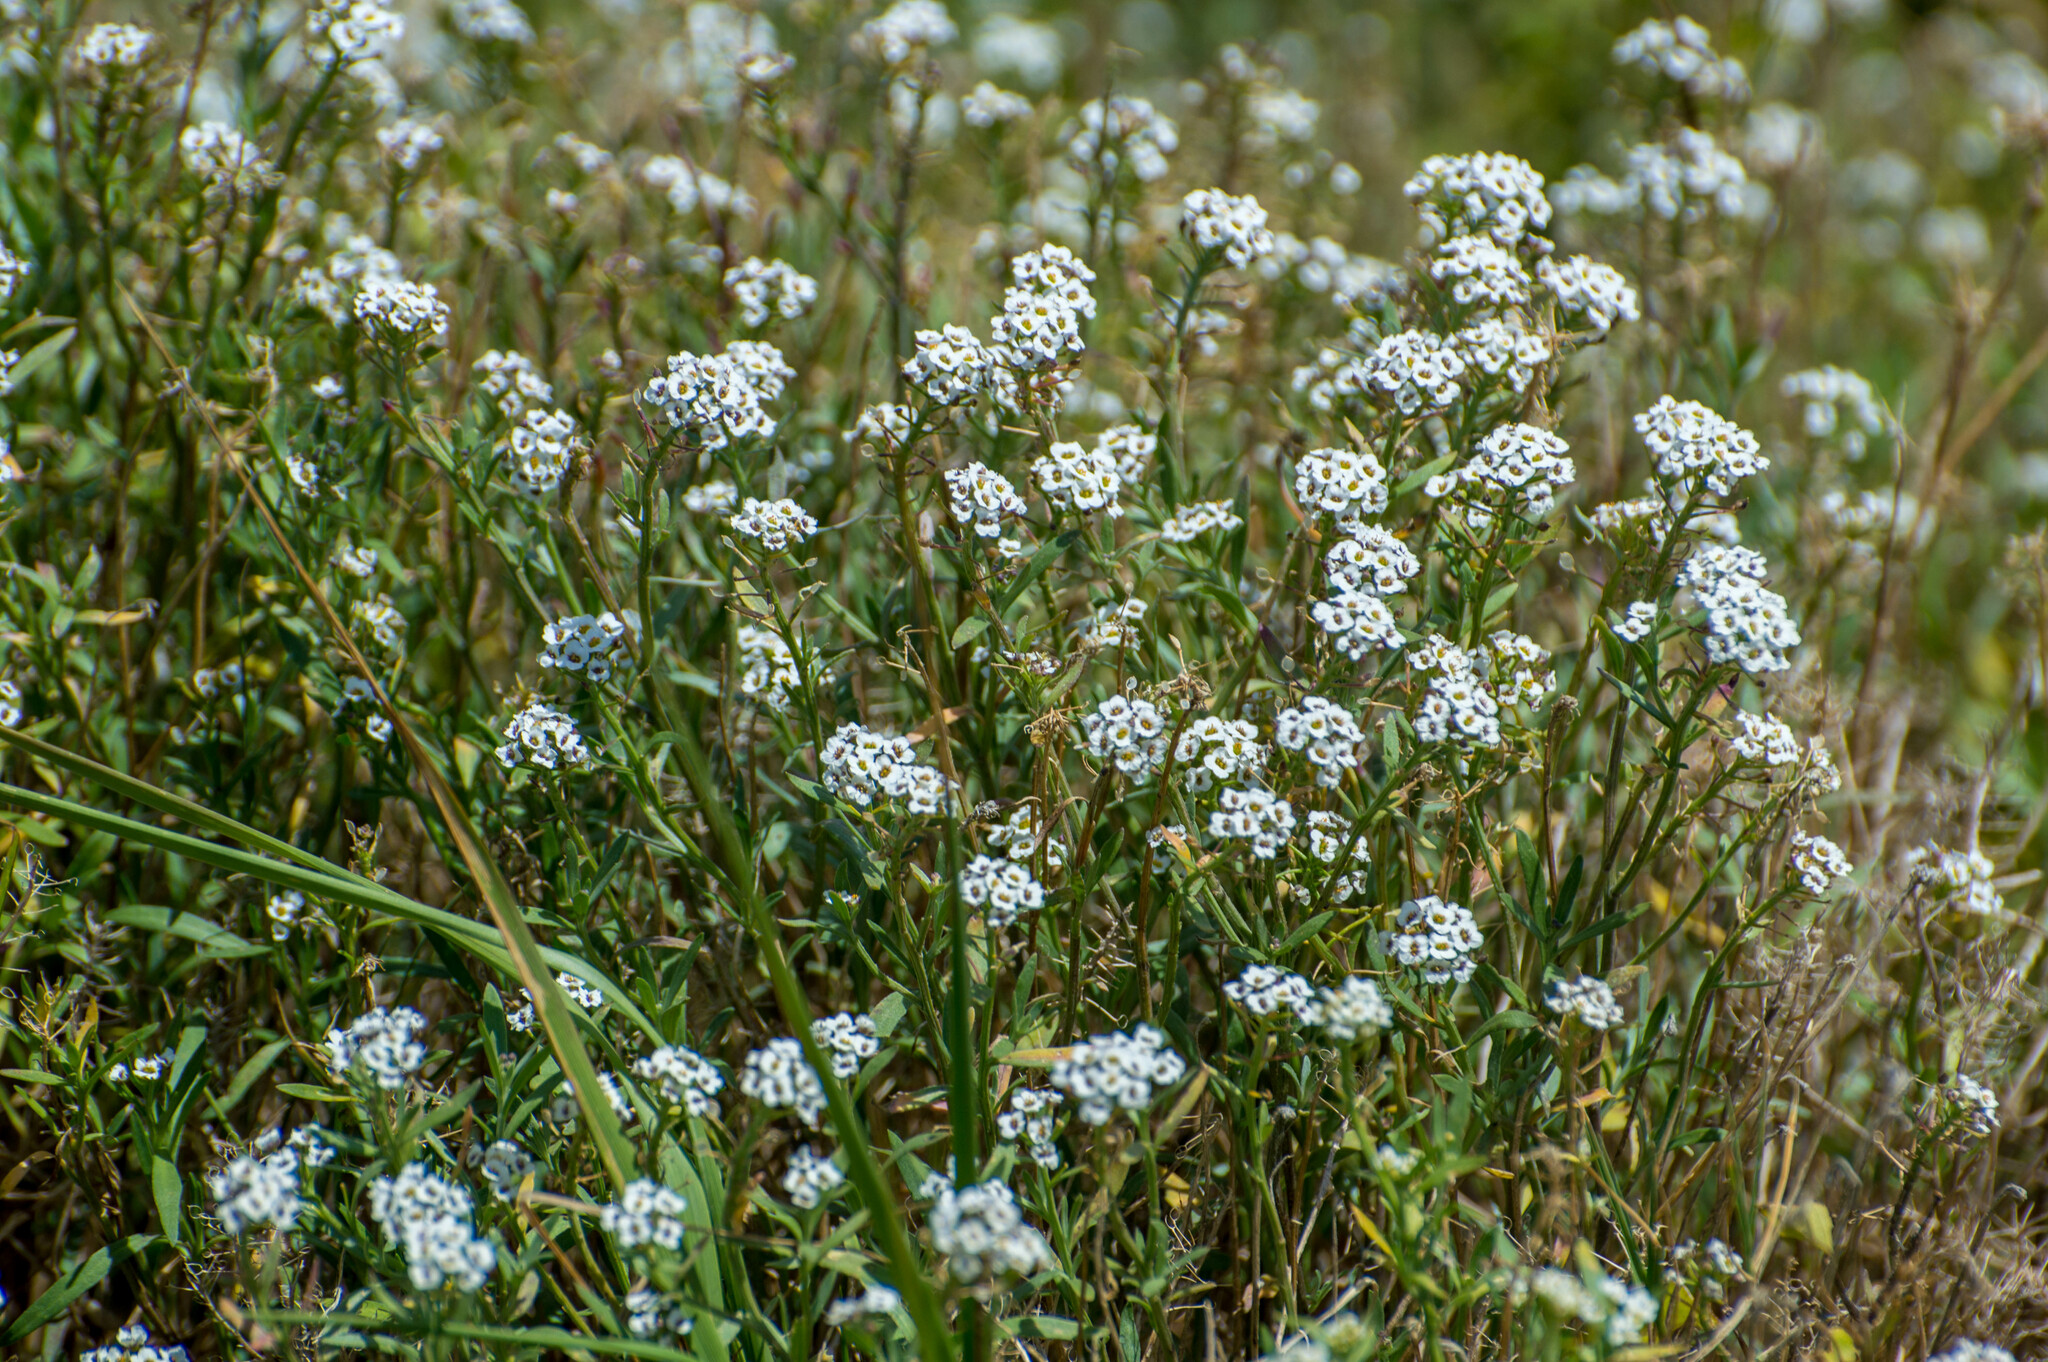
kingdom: Plantae
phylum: Tracheophyta
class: Magnoliopsida
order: Brassicales
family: Brassicaceae
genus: Lobularia
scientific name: Lobularia maritima
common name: Sweet alison
